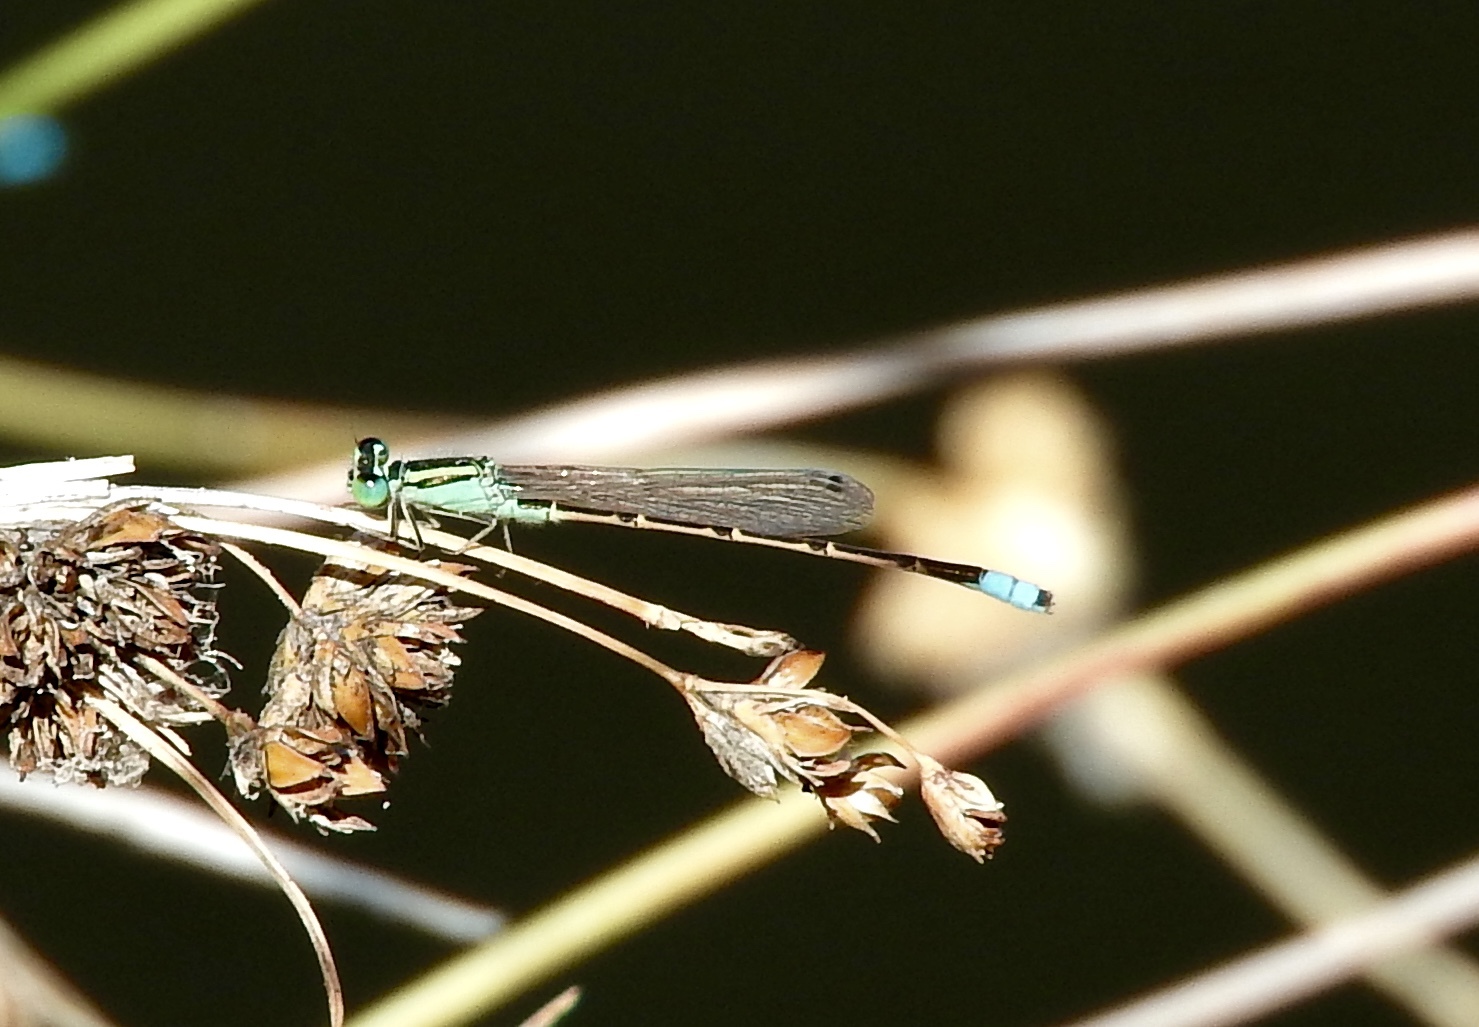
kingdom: Animalia
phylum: Arthropoda
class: Insecta
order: Odonata
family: Coenagrionidae
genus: Ischnura
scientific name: Ischnura barberi
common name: Desert forktail
